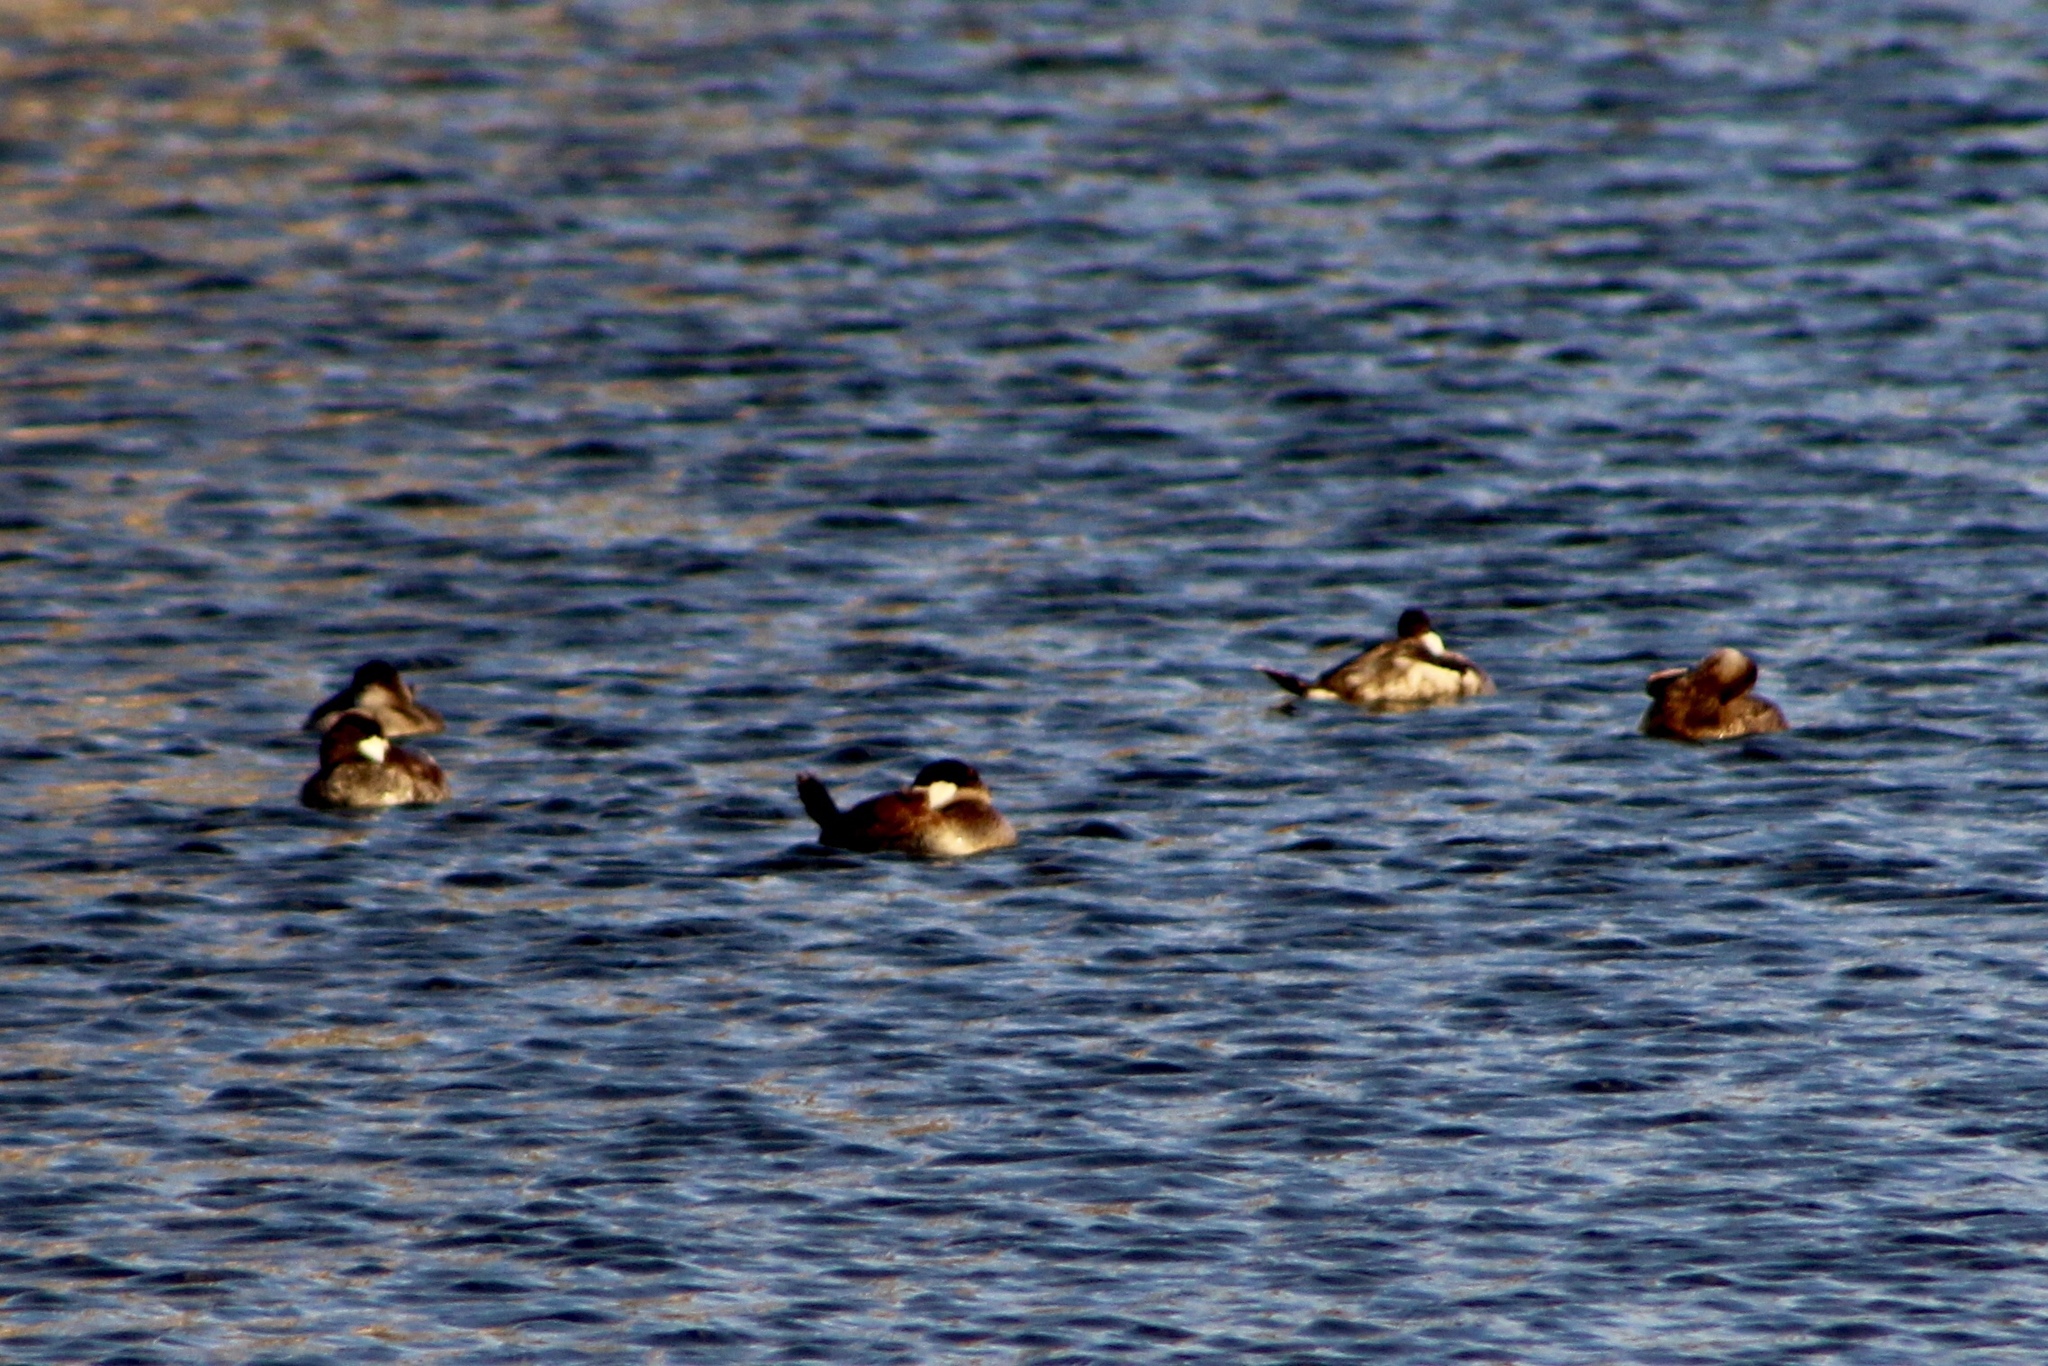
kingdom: Animalia
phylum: Chordata
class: Aves
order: Anseriformes
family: Anatidae
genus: Oxyura
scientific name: Oxyura jamaicensis
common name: Ruddy duck
